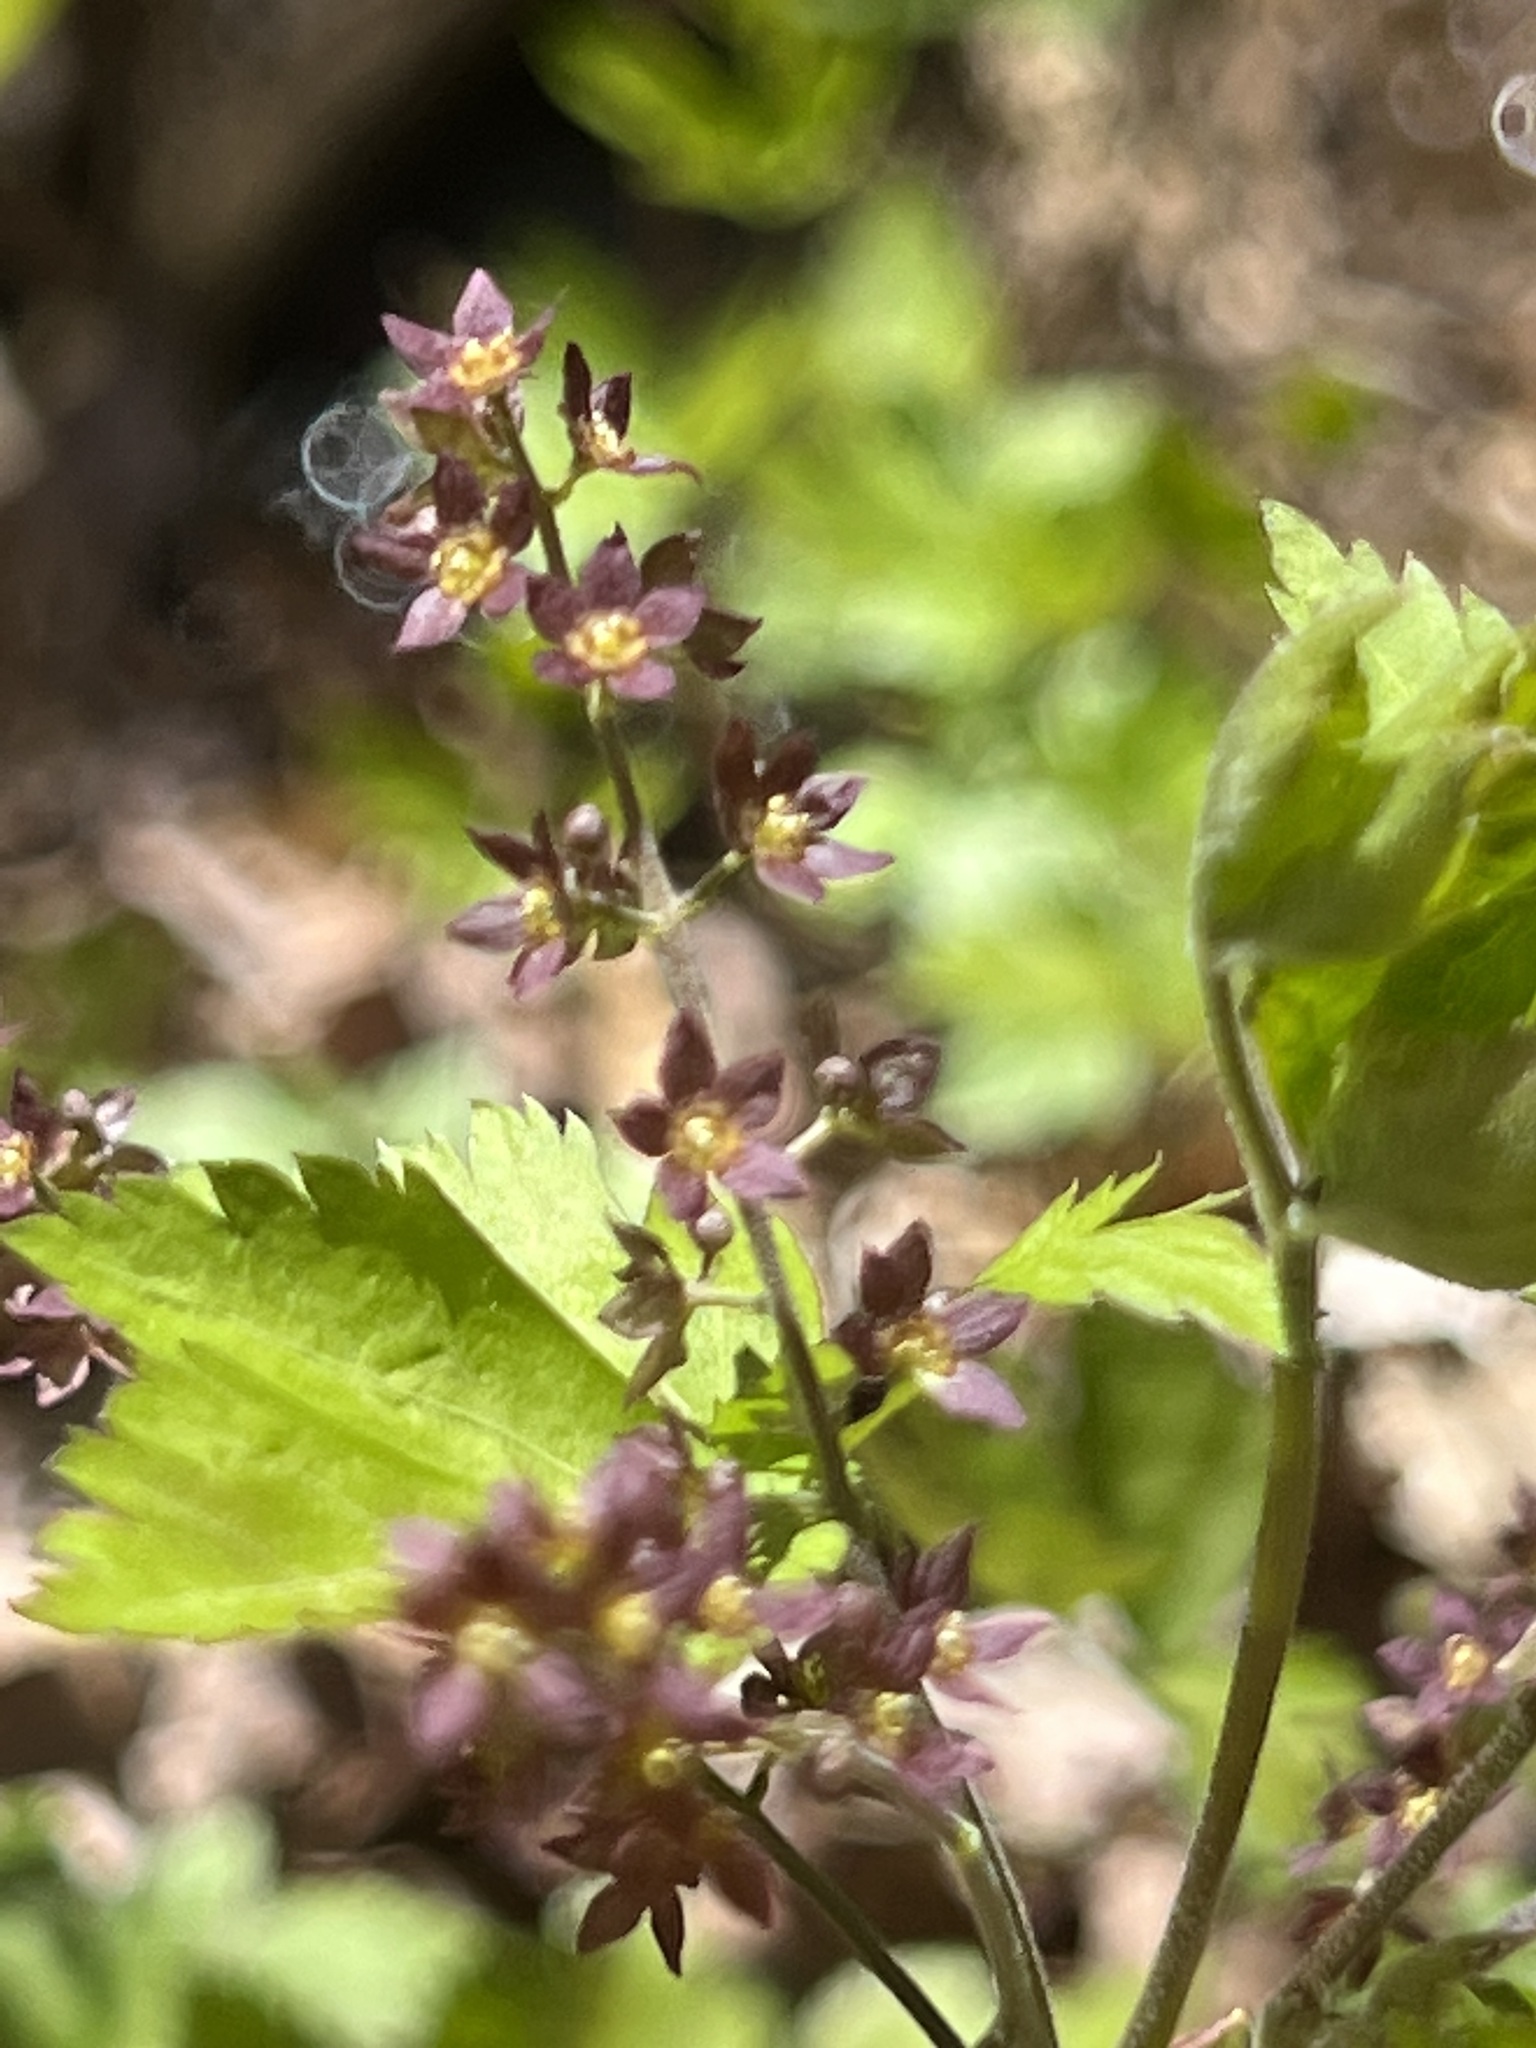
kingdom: Plantae
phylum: Tracheophyta
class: Magnoliopsida
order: Ranunculales
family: Ranunculaceae
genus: Xanthorhiza
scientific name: Xanthorhiza simplicissima
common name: Yellowroot
